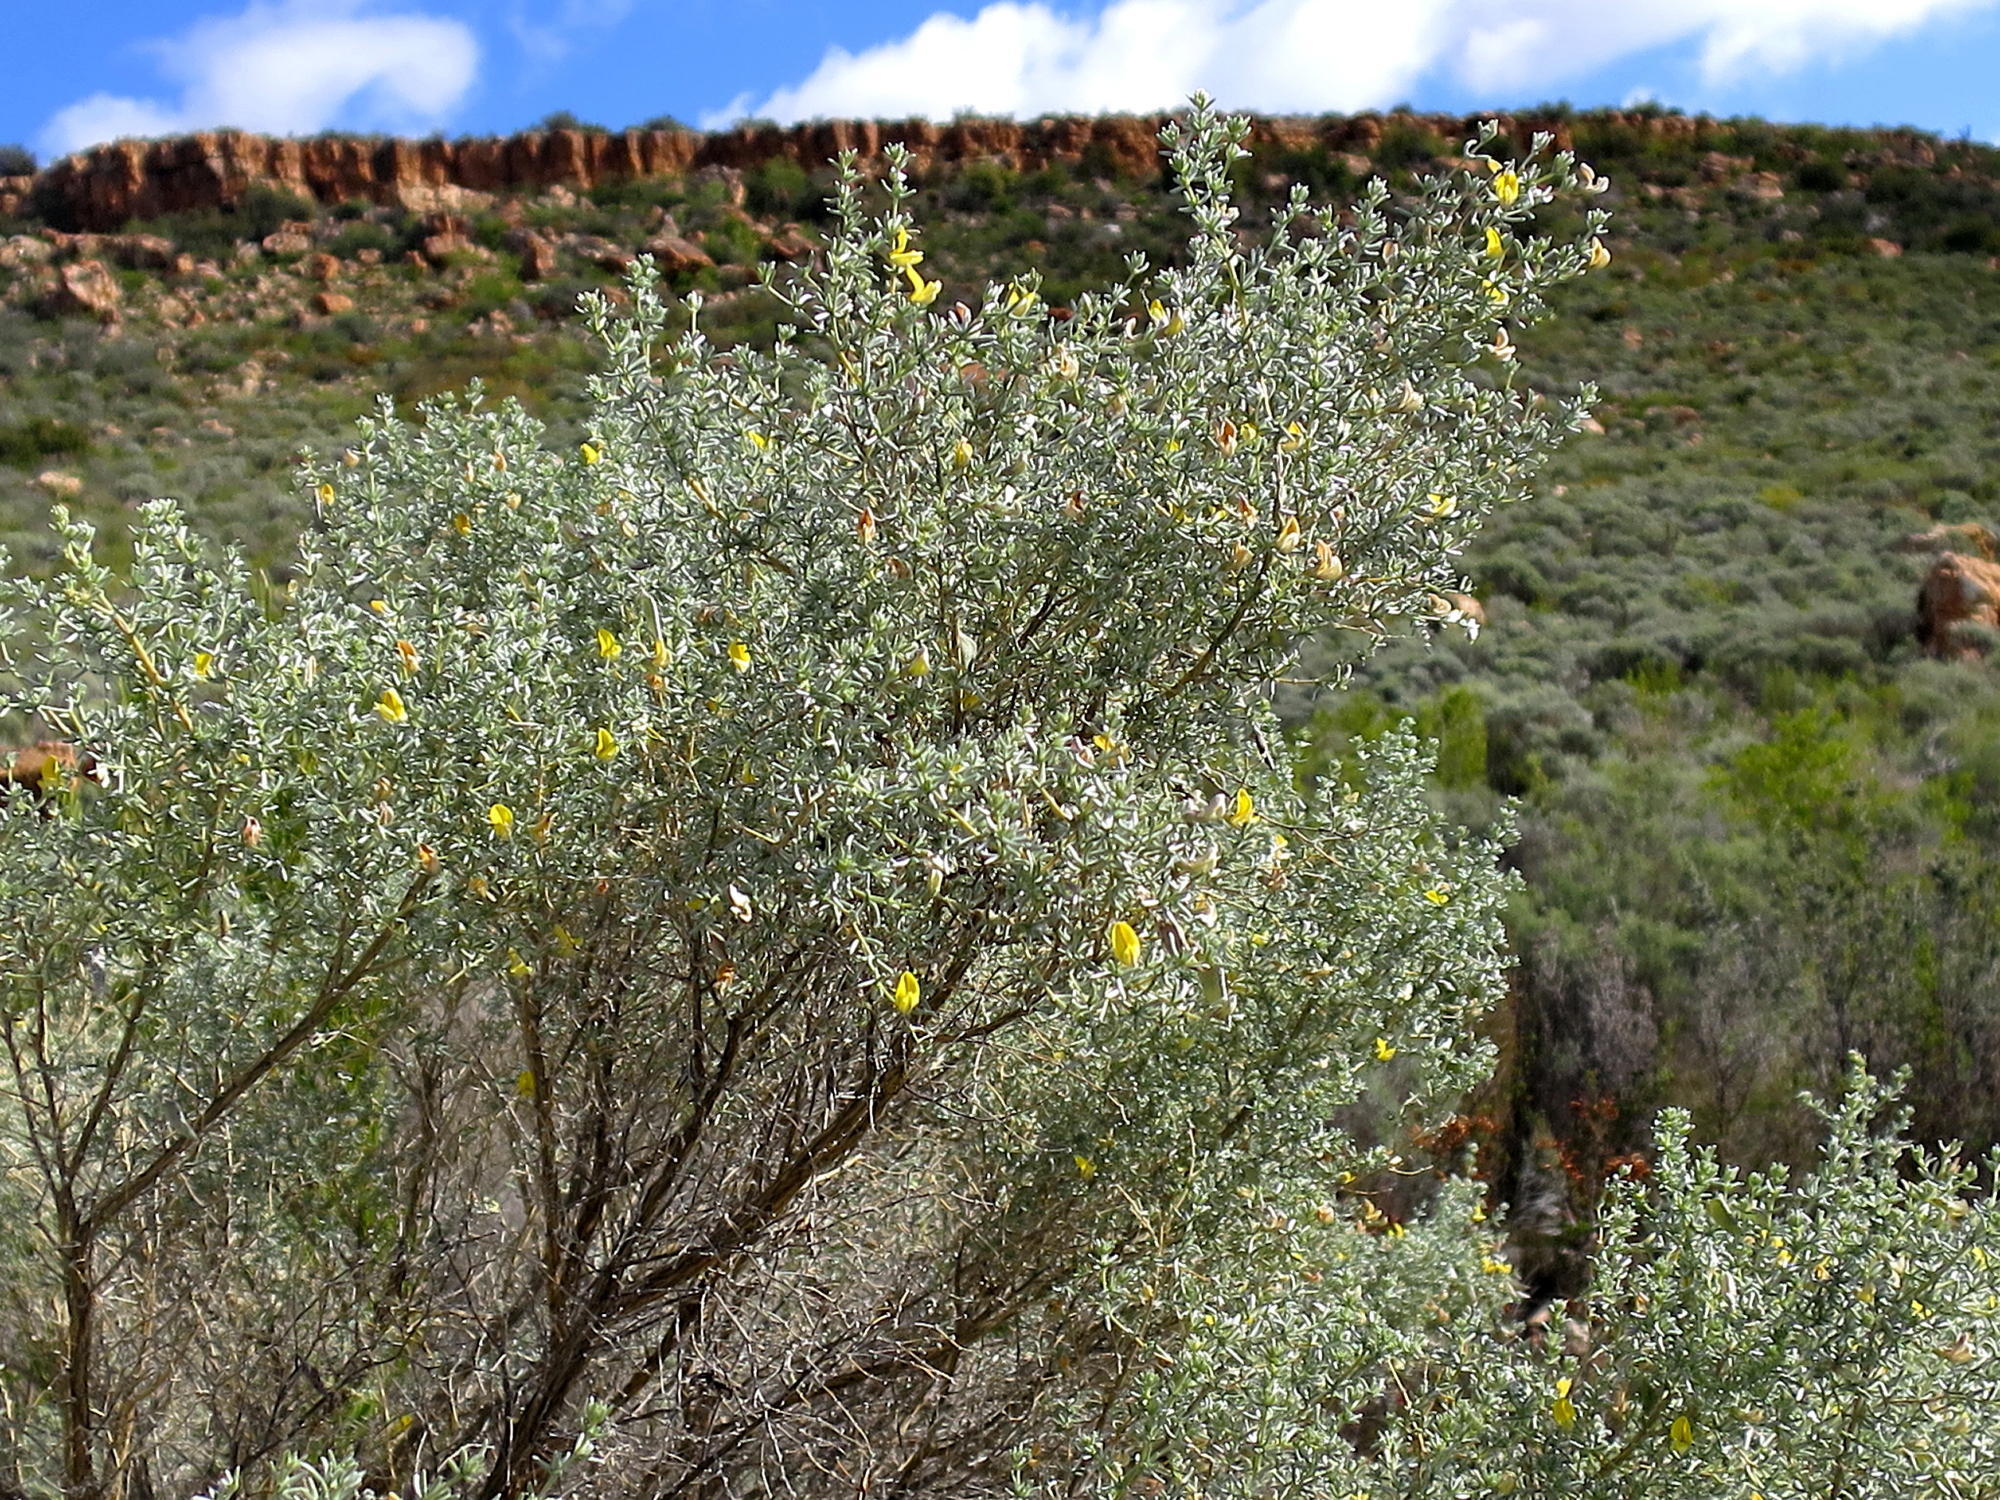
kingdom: Plantae
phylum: Tracheophyta
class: Magnoliopsida
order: Fabales
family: Fabaceae
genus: Aspalathus
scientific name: Aspalathus pedunculata
